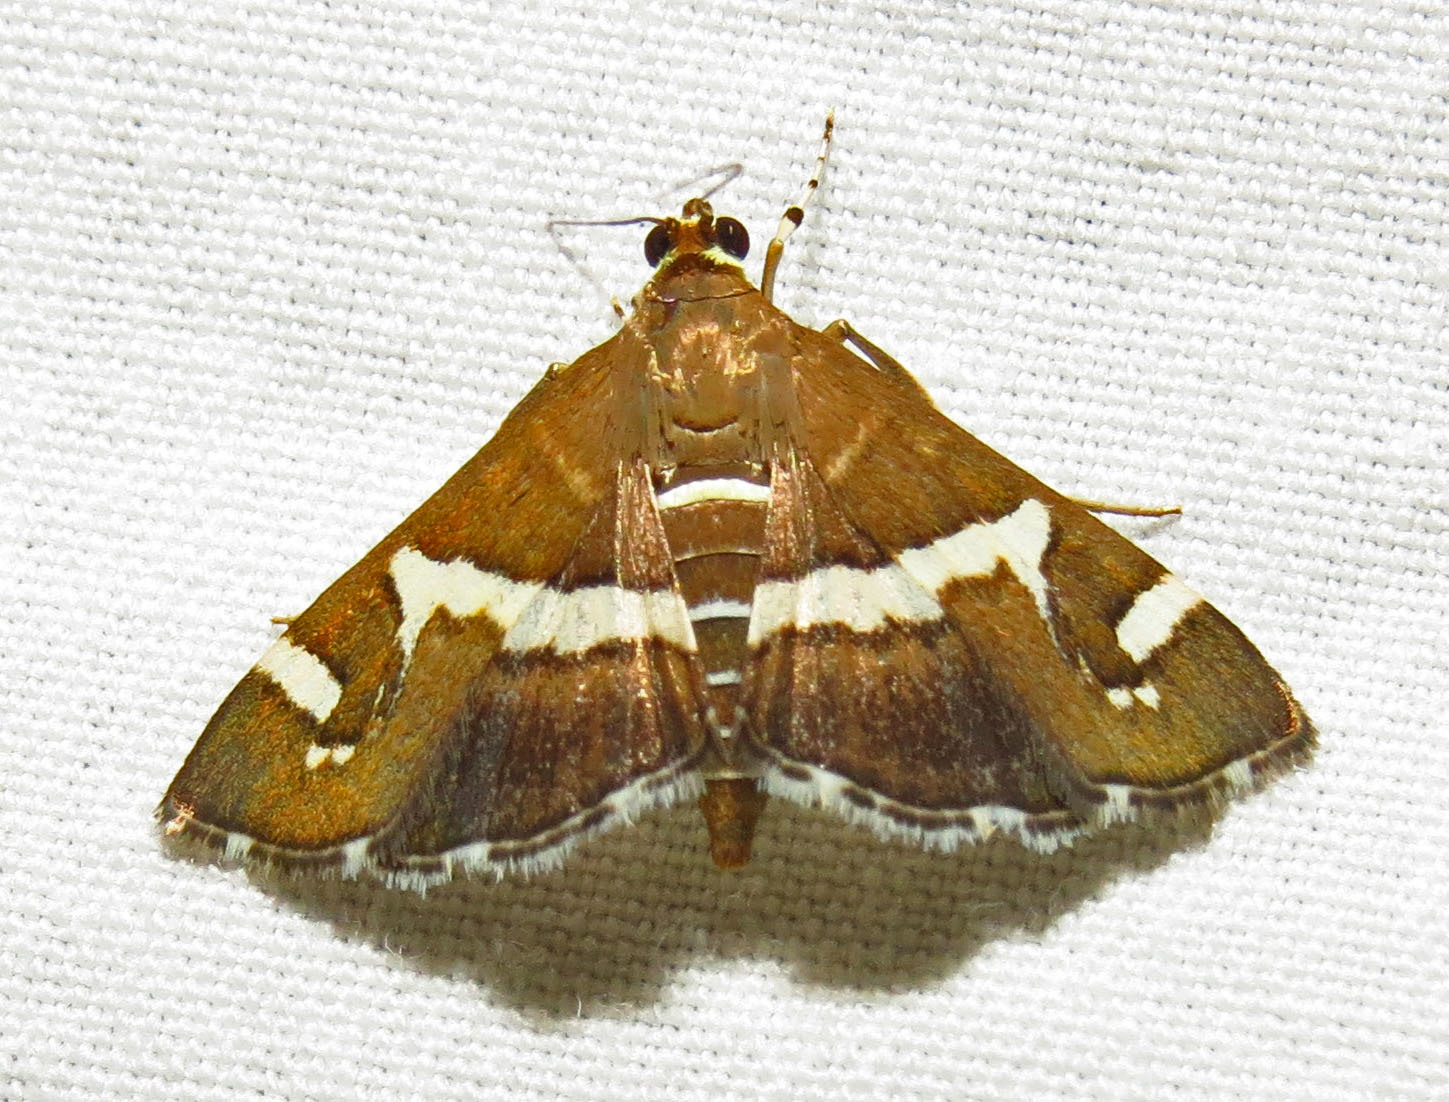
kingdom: Animalia
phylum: Arthropoda
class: Insecta
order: Lepidoptera
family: Crambidae
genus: Spoladea
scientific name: Spoladea recurvalis
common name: Beet webworm moth
